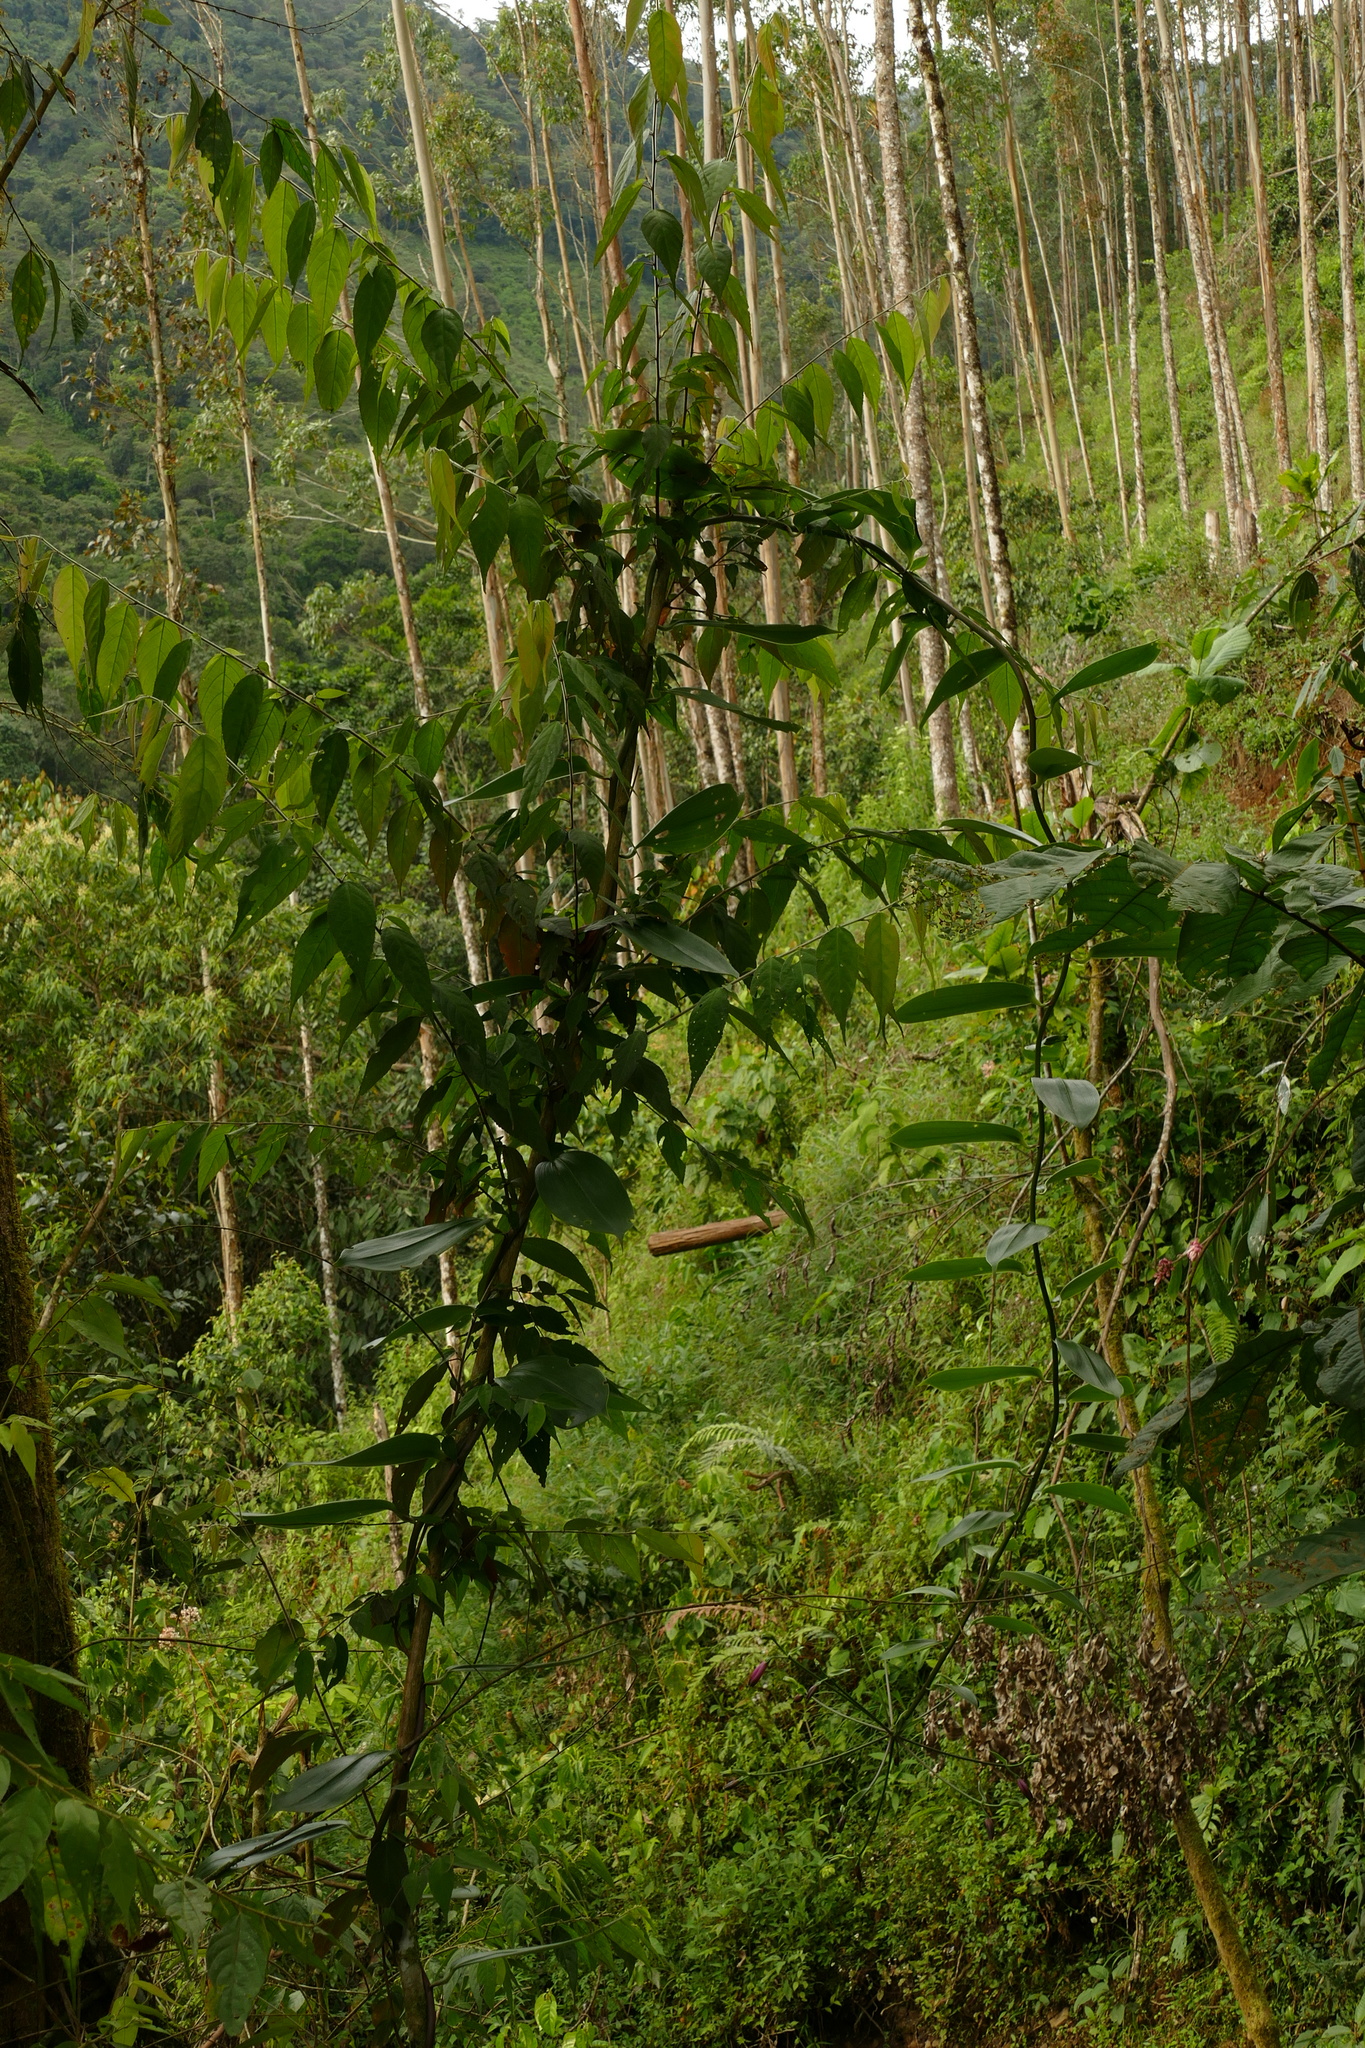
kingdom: Plantae
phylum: Tracheophyta
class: Liliopsida
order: Liliales
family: Alstroemeriaceae
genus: Bomarea
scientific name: Bomarea diffracta
